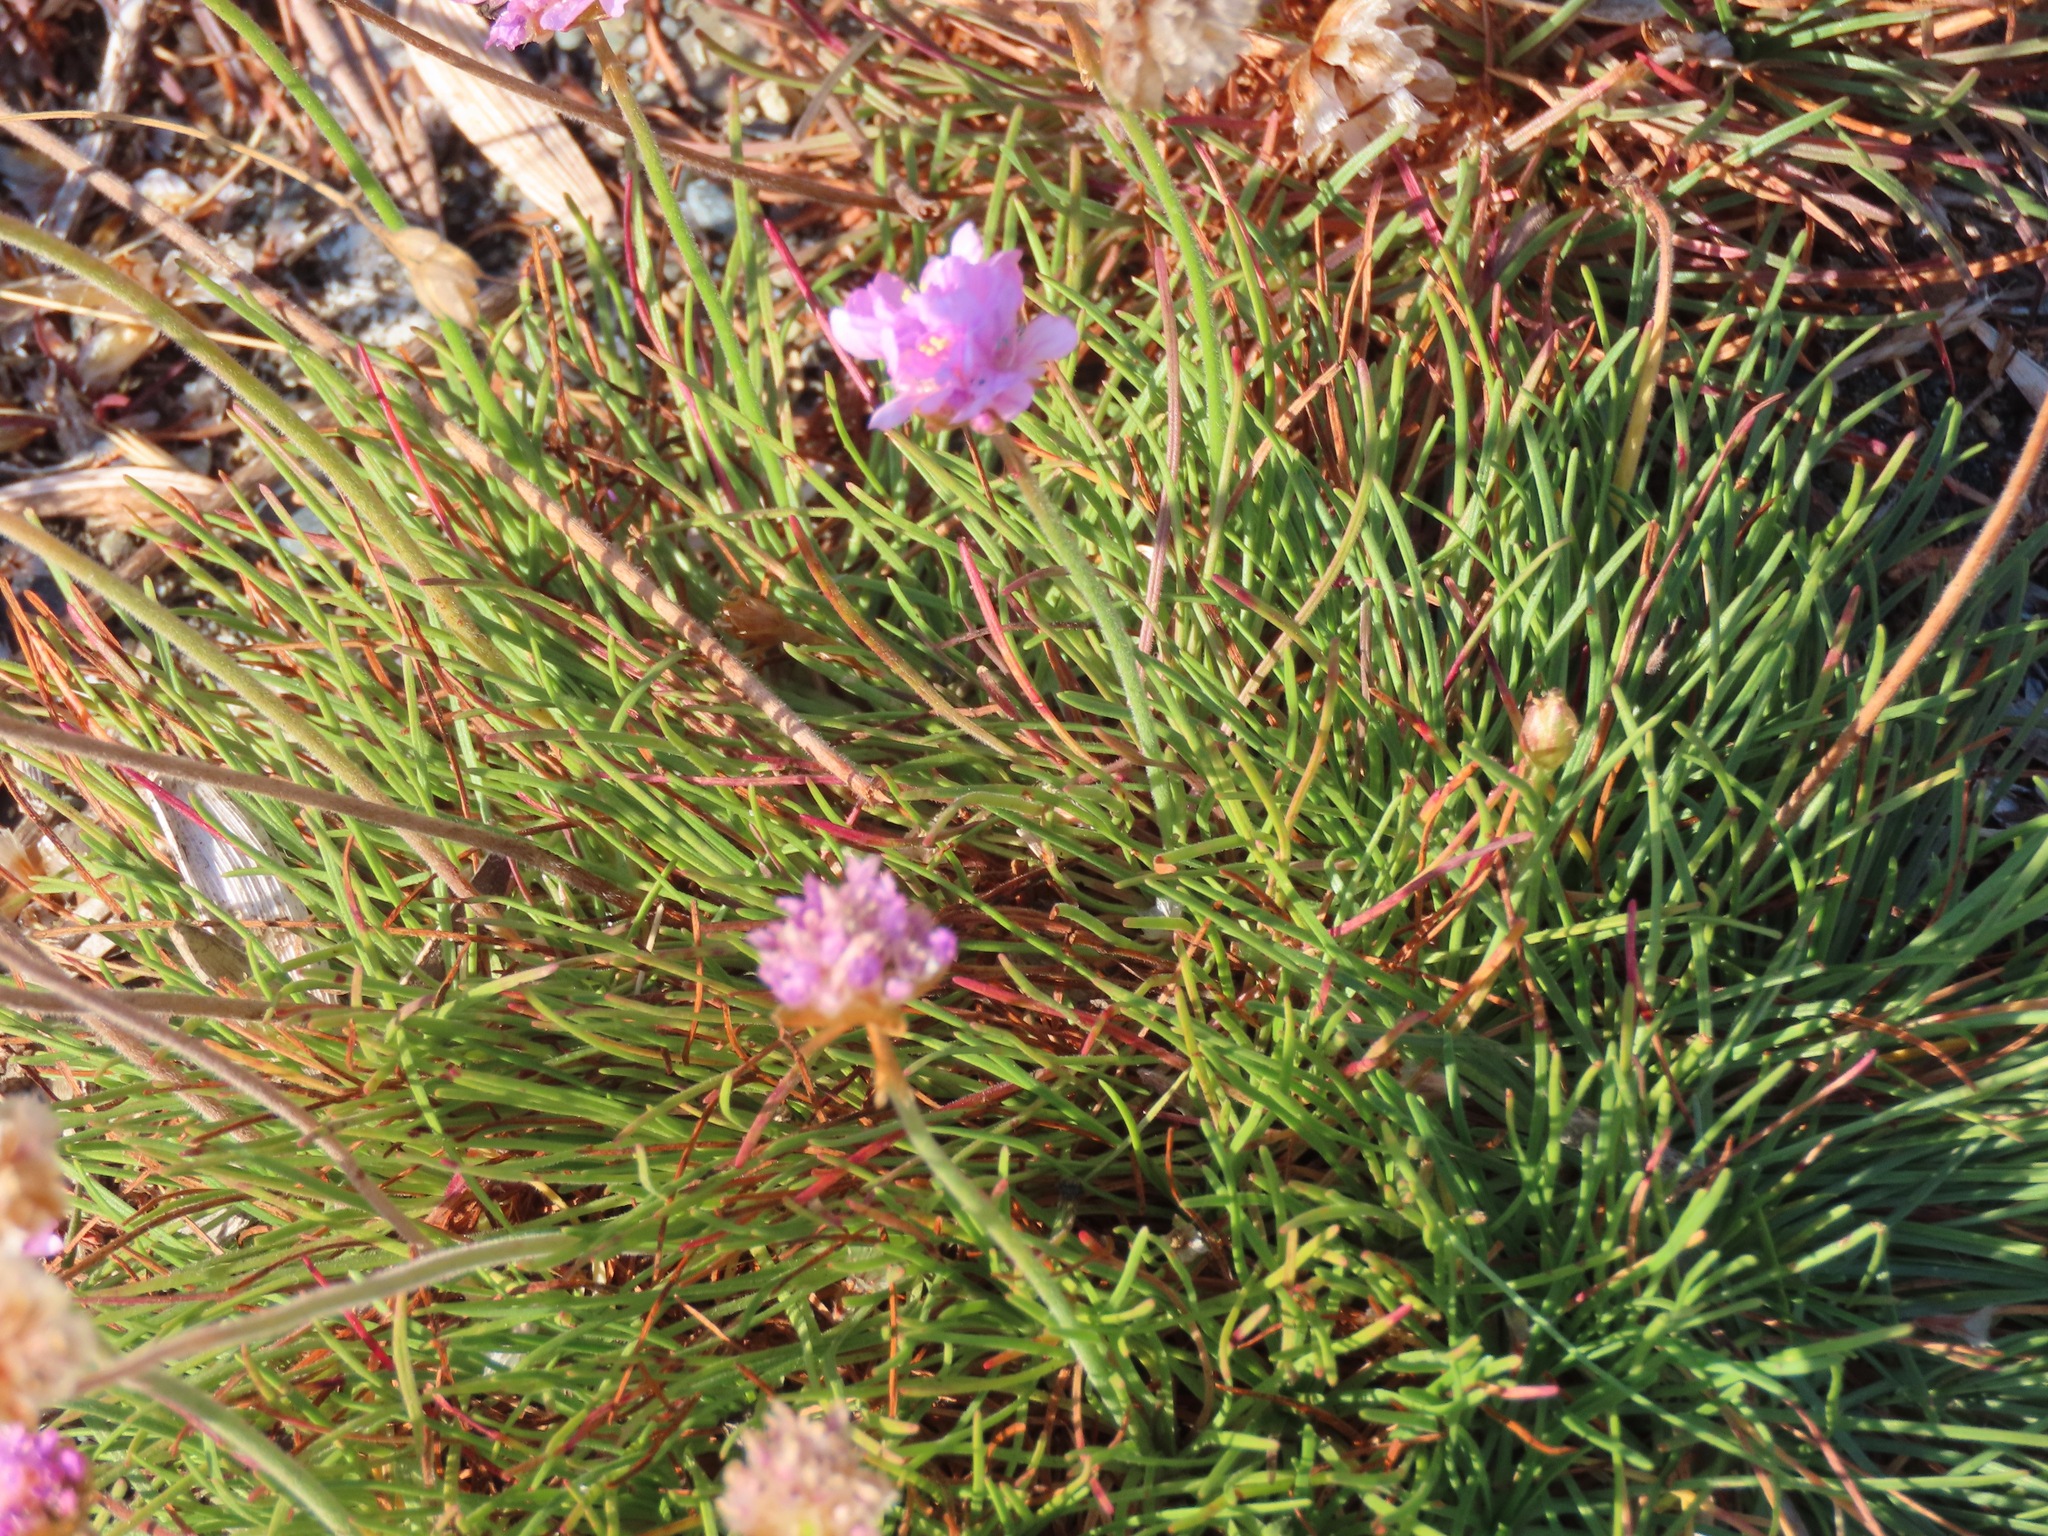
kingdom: Plantae
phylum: Tracheophyta
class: Magnoliopsida
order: Caryophyllales
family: Plumbaginaceae
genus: Armeria
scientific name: Armeria maritima
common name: Thrift
